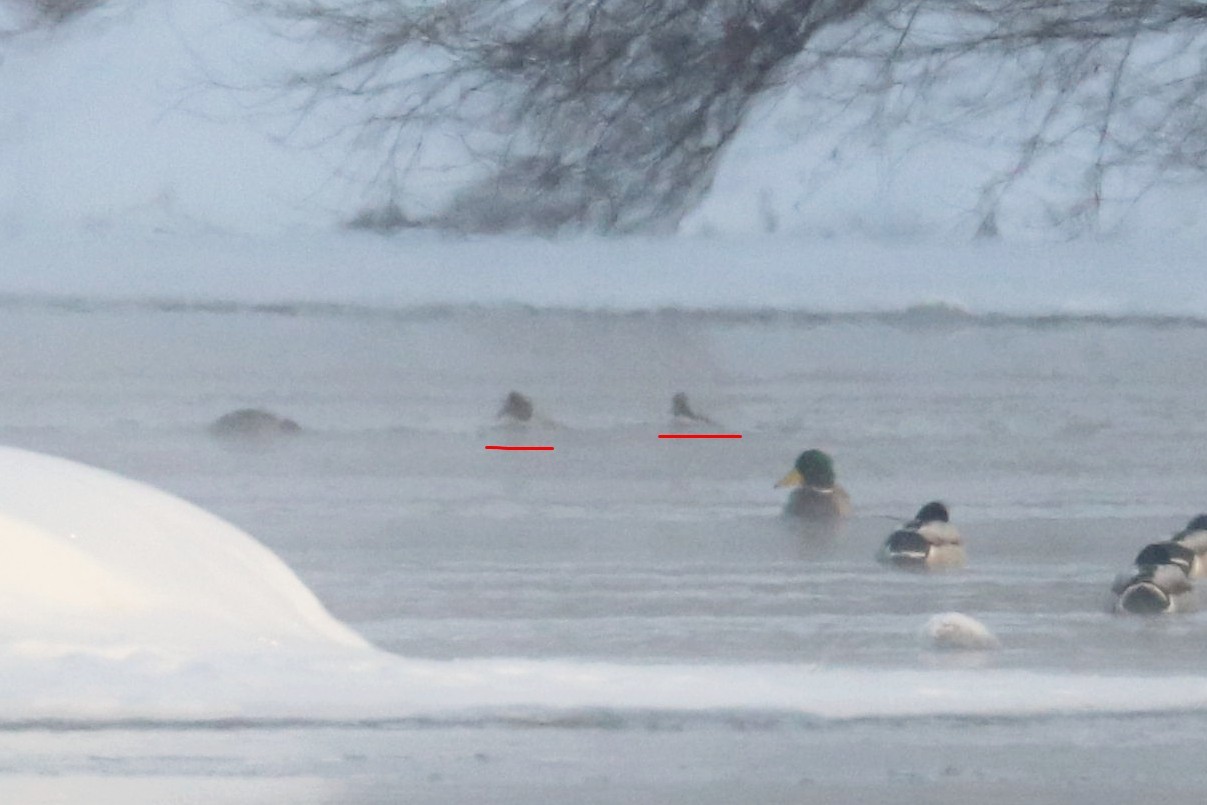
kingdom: Animalia
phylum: Chordata
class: Aves
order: Anseriformes
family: Anatidae
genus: Bucephala
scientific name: Bucephala clangula
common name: Common goldeneye
